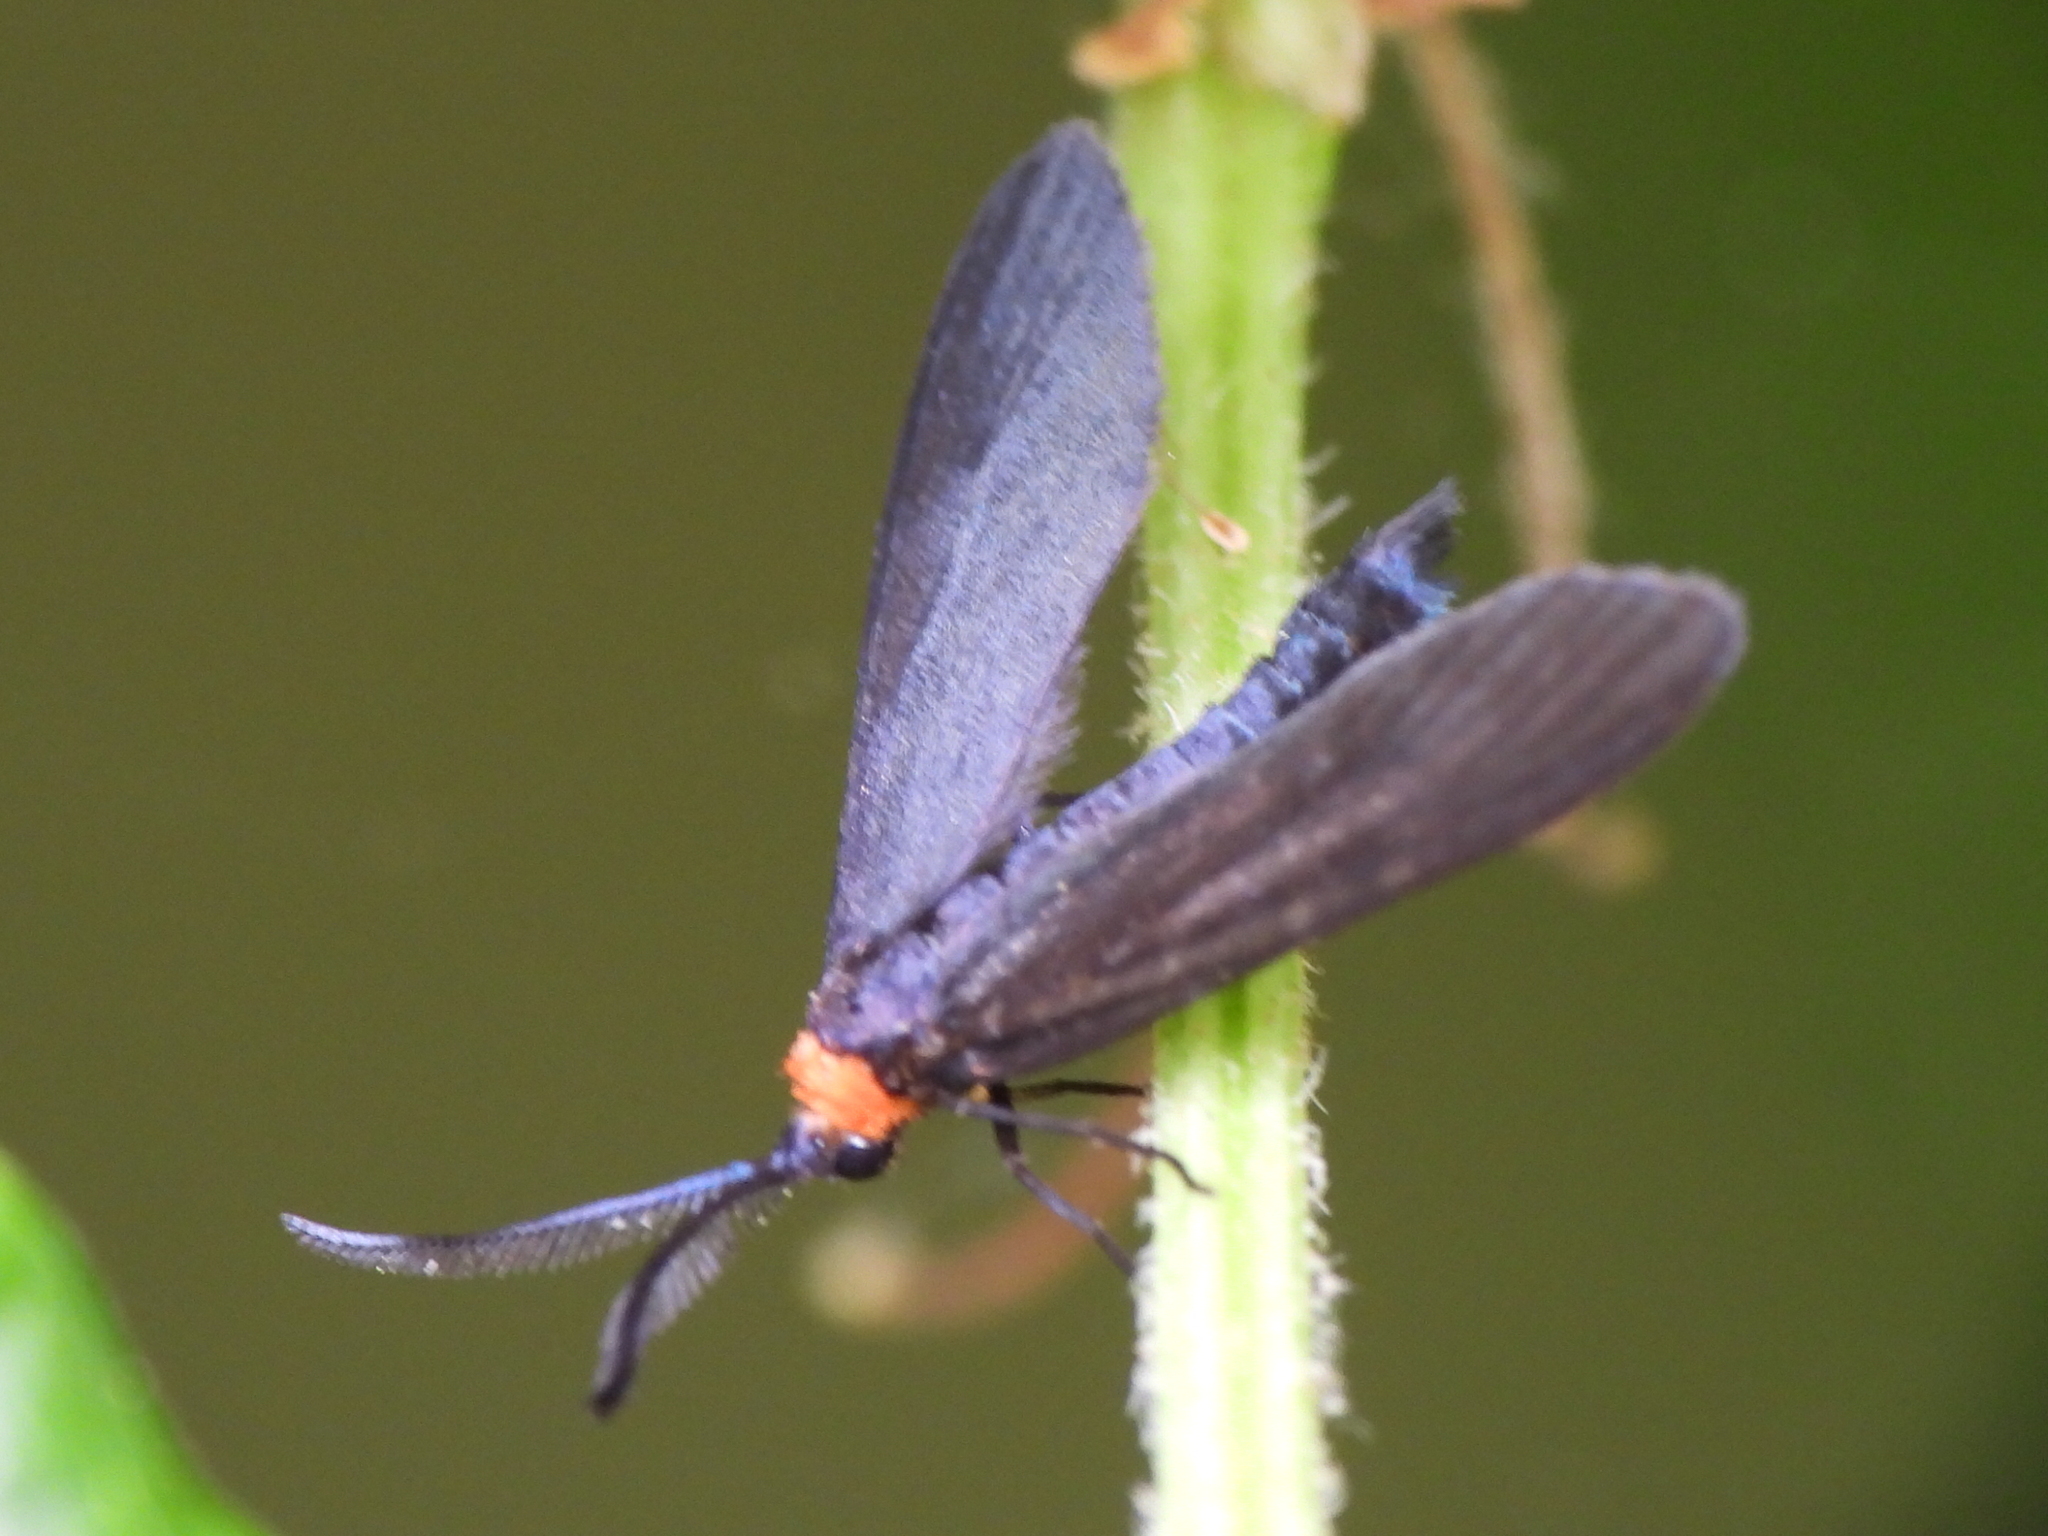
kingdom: Animalia
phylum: Arthropoda
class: Insecta
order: Lepidoptera
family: Zygaenidae
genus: Harrisina
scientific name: Harrisina americana
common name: Grapeleaf skeletonizer moth
